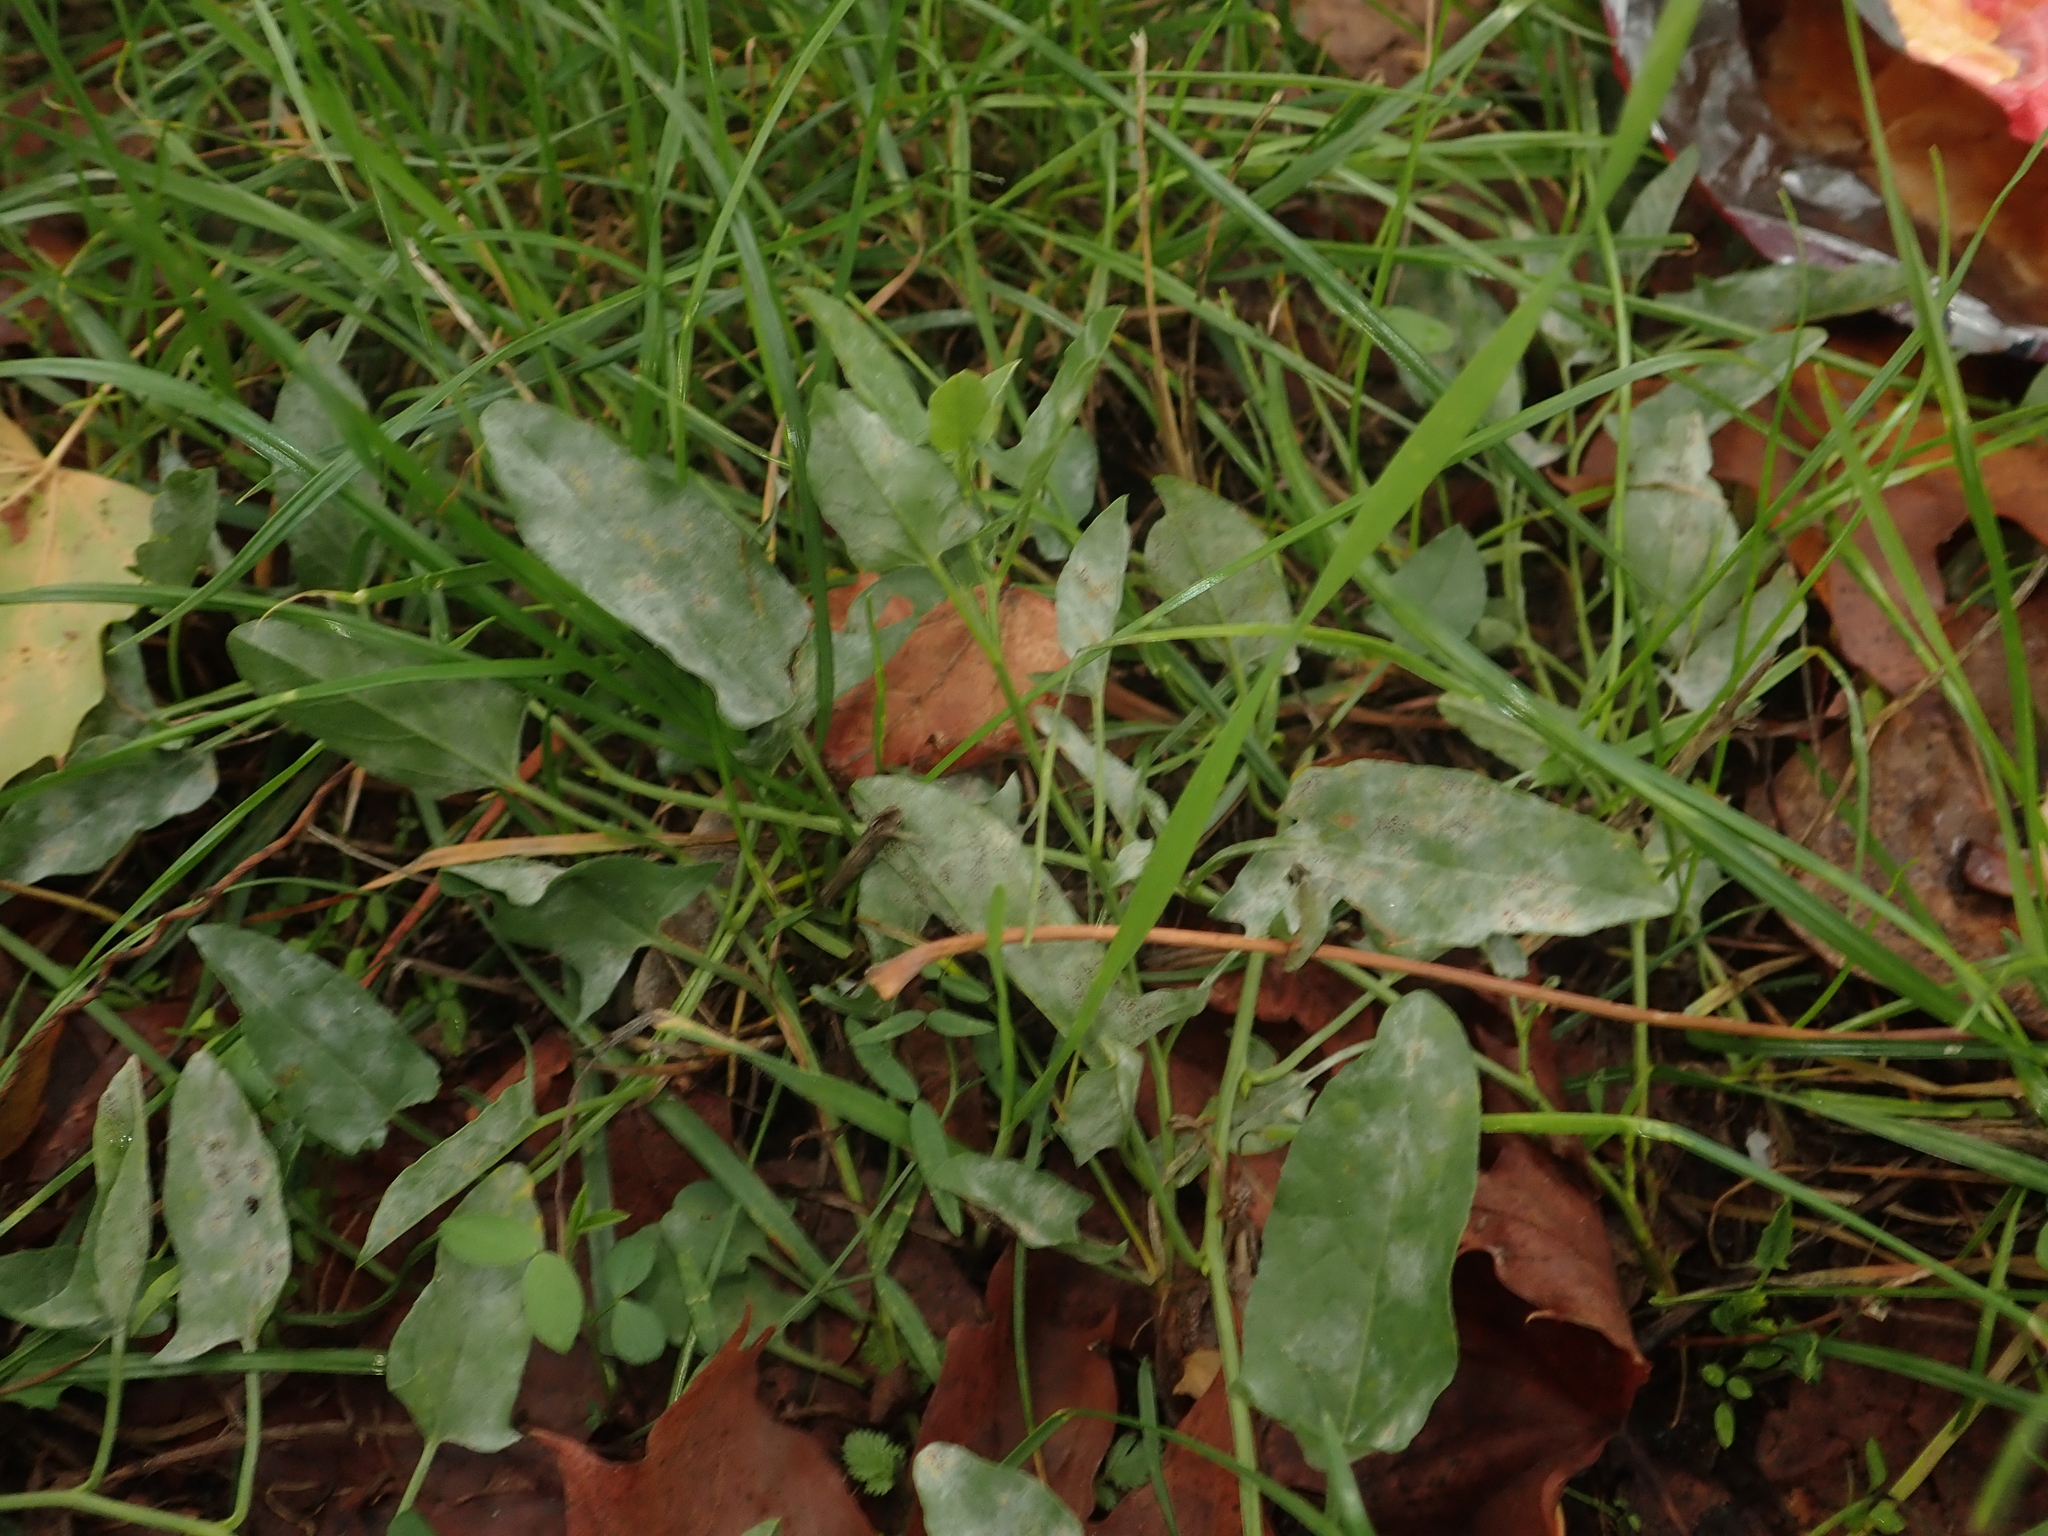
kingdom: Plantae
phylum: Tracheophyta
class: Magnoliopsida
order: Solanales
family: Convolvulaceae
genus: Convolvulus
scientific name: Convolvulus arvensis
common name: Field bindweed
